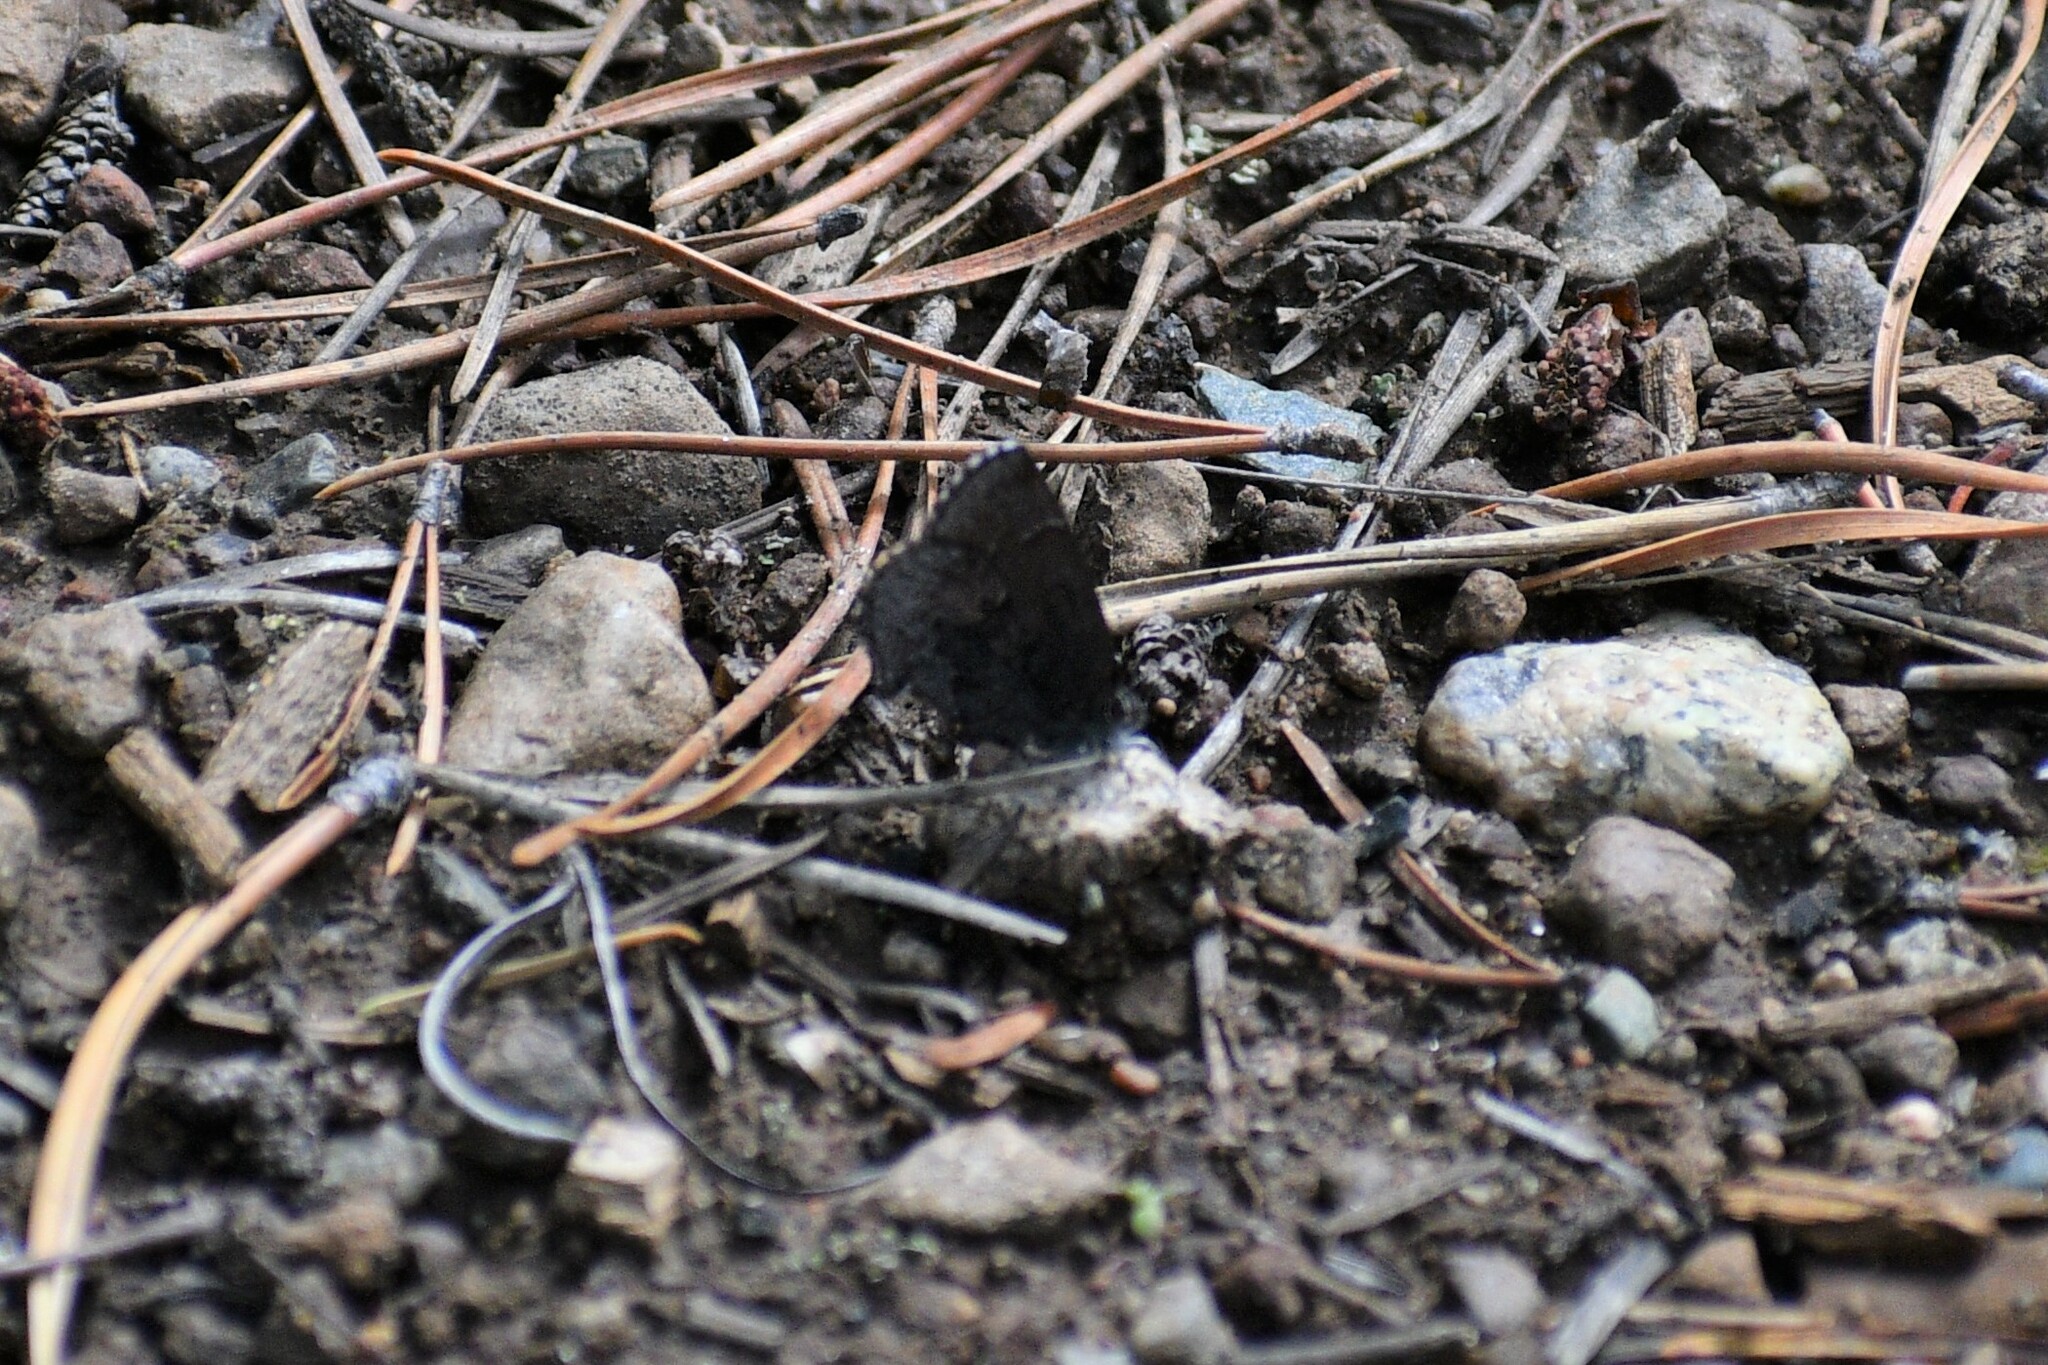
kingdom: Animalia
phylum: Arthropoda
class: Insecta
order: Lepidoptera
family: Lycaenidae
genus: Callophrys
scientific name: Callophrys polios
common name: Hoary elfin
